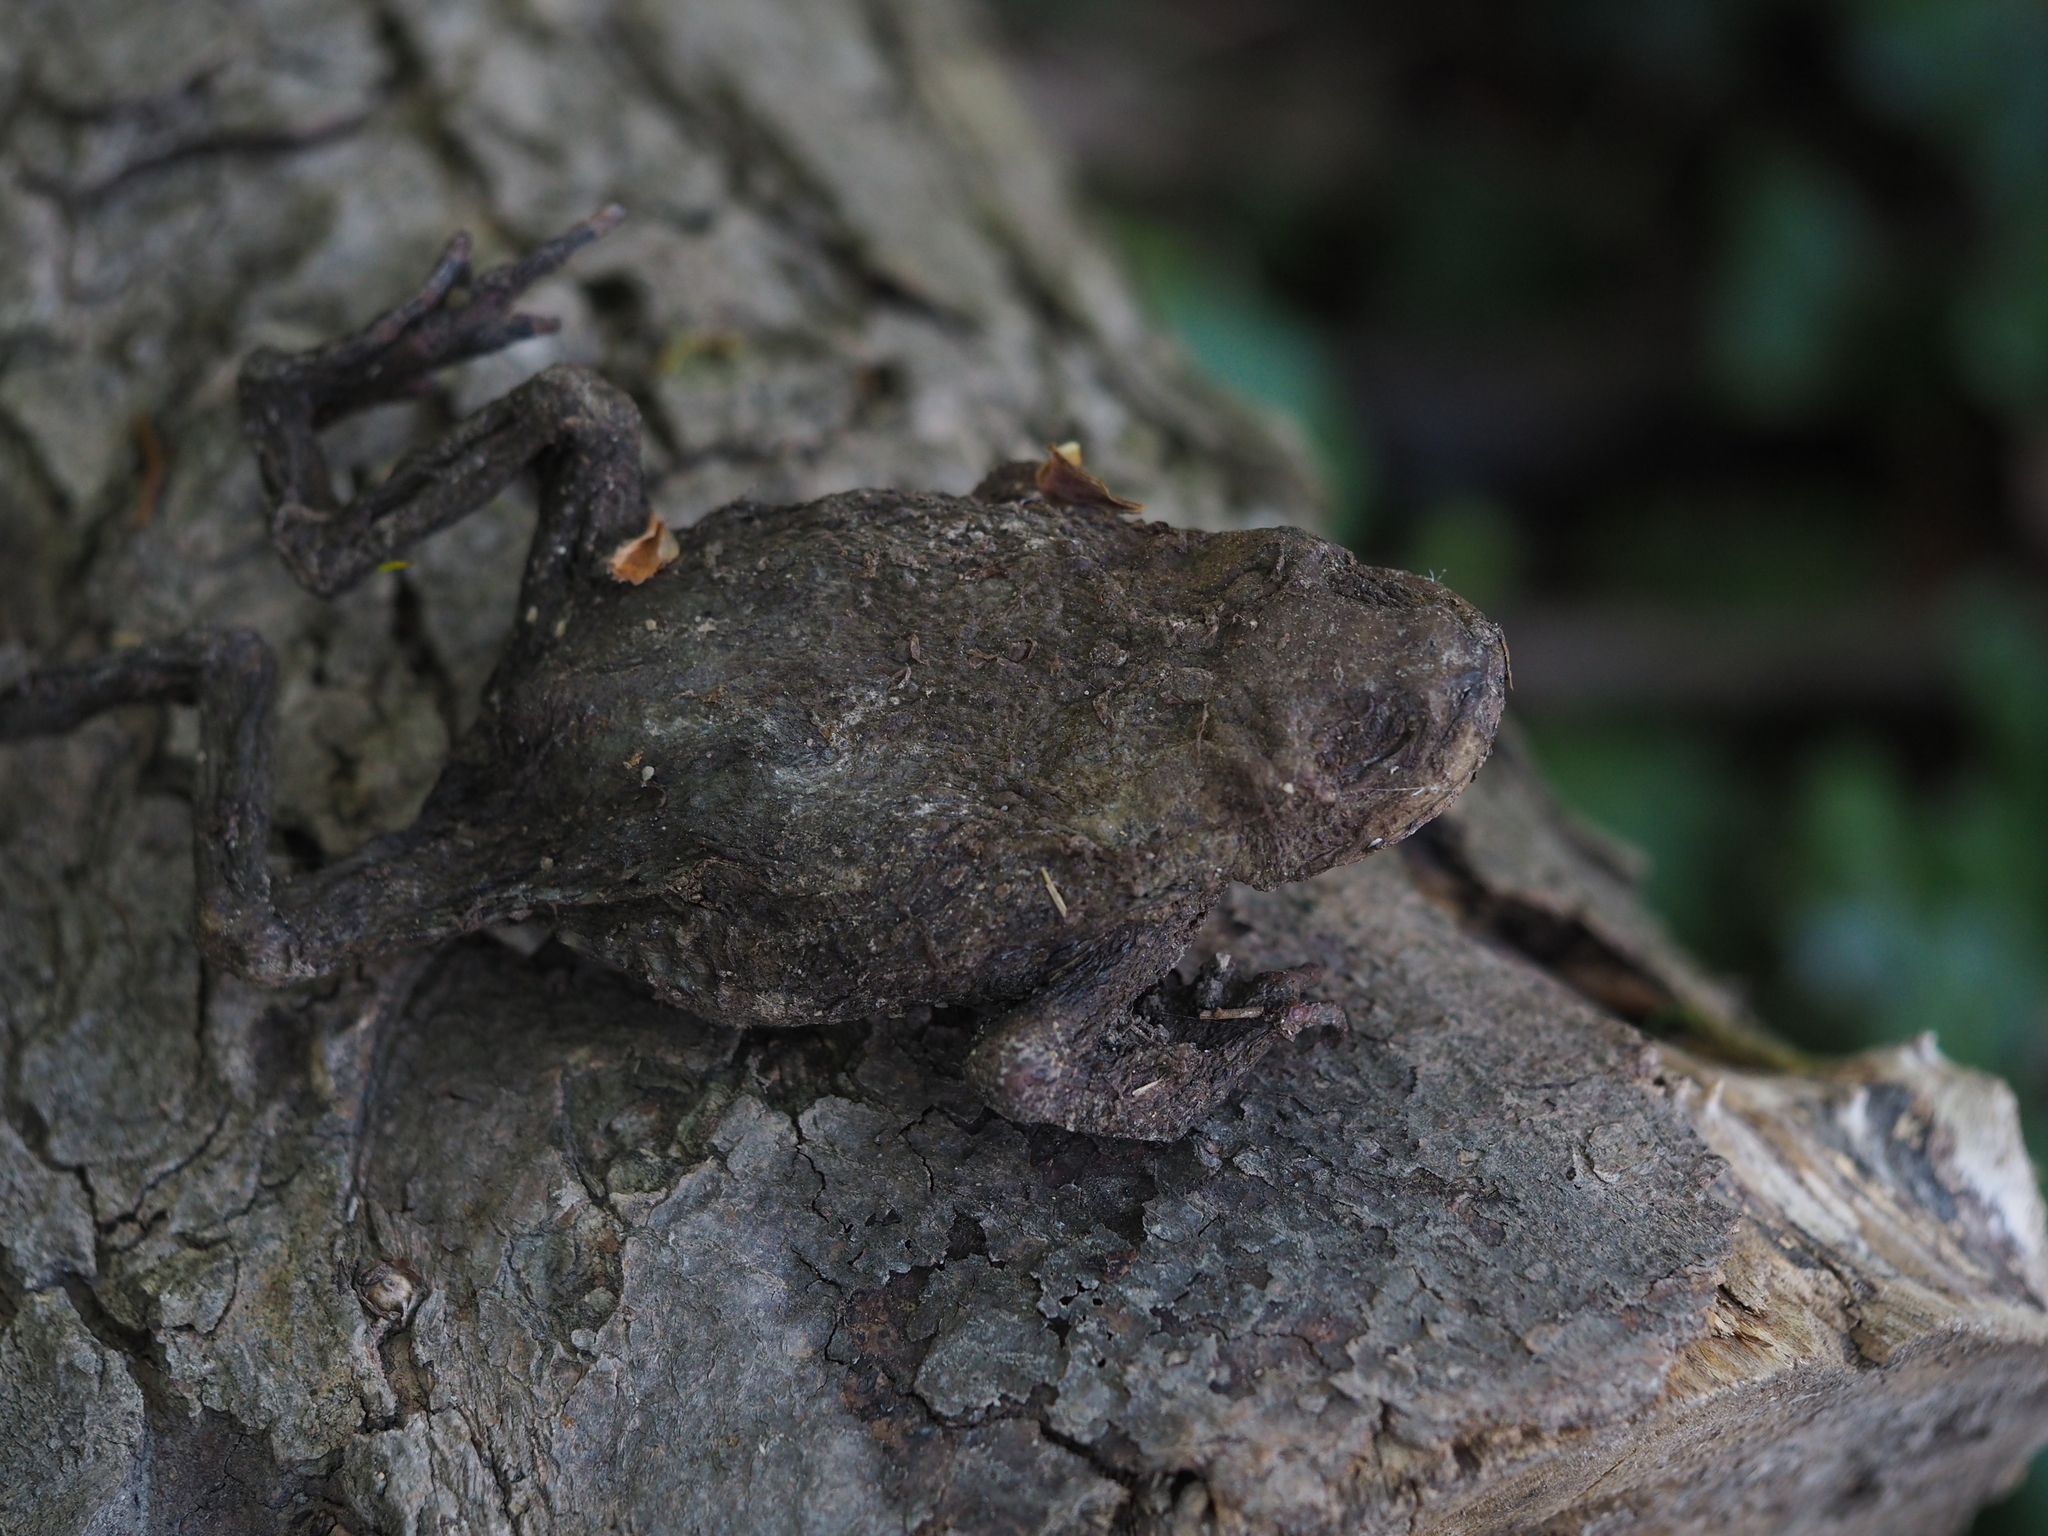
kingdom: Animalia
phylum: Chordata
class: Amphibia
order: Anura
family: Bufonidae
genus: Bufo
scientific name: Bufo bufo
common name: Common toad
